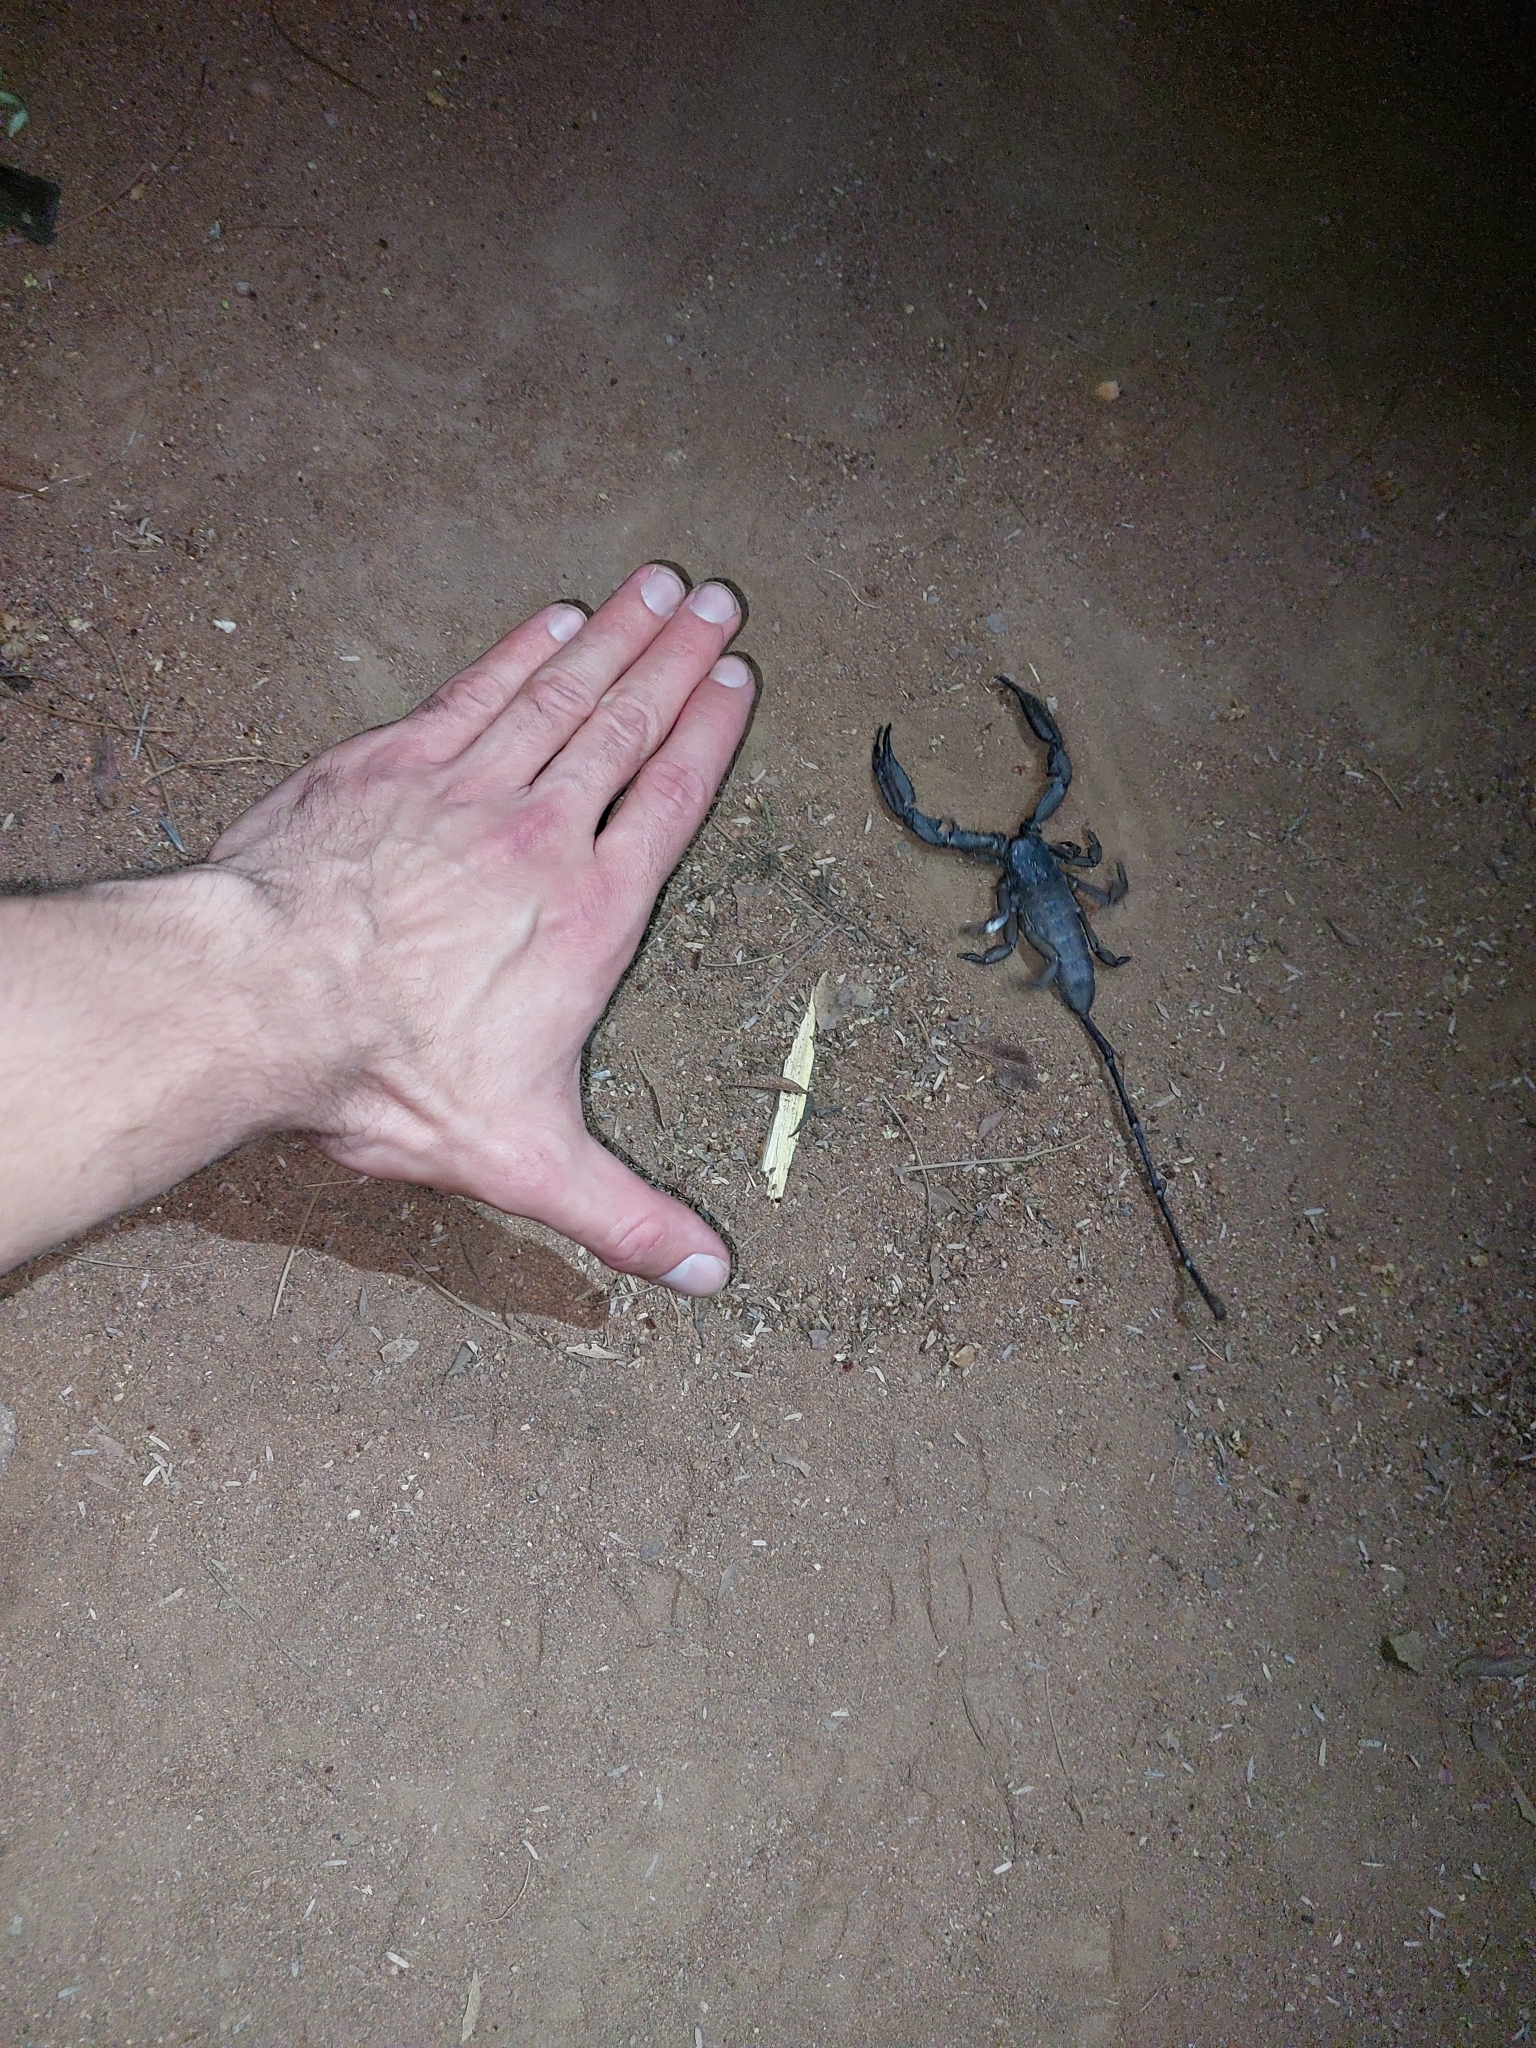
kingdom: Animalia
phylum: Arthropoda
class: Arachnida
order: Scorpiones
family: Hormuridae
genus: Hadogenes
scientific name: Hadogenes troglodytes
